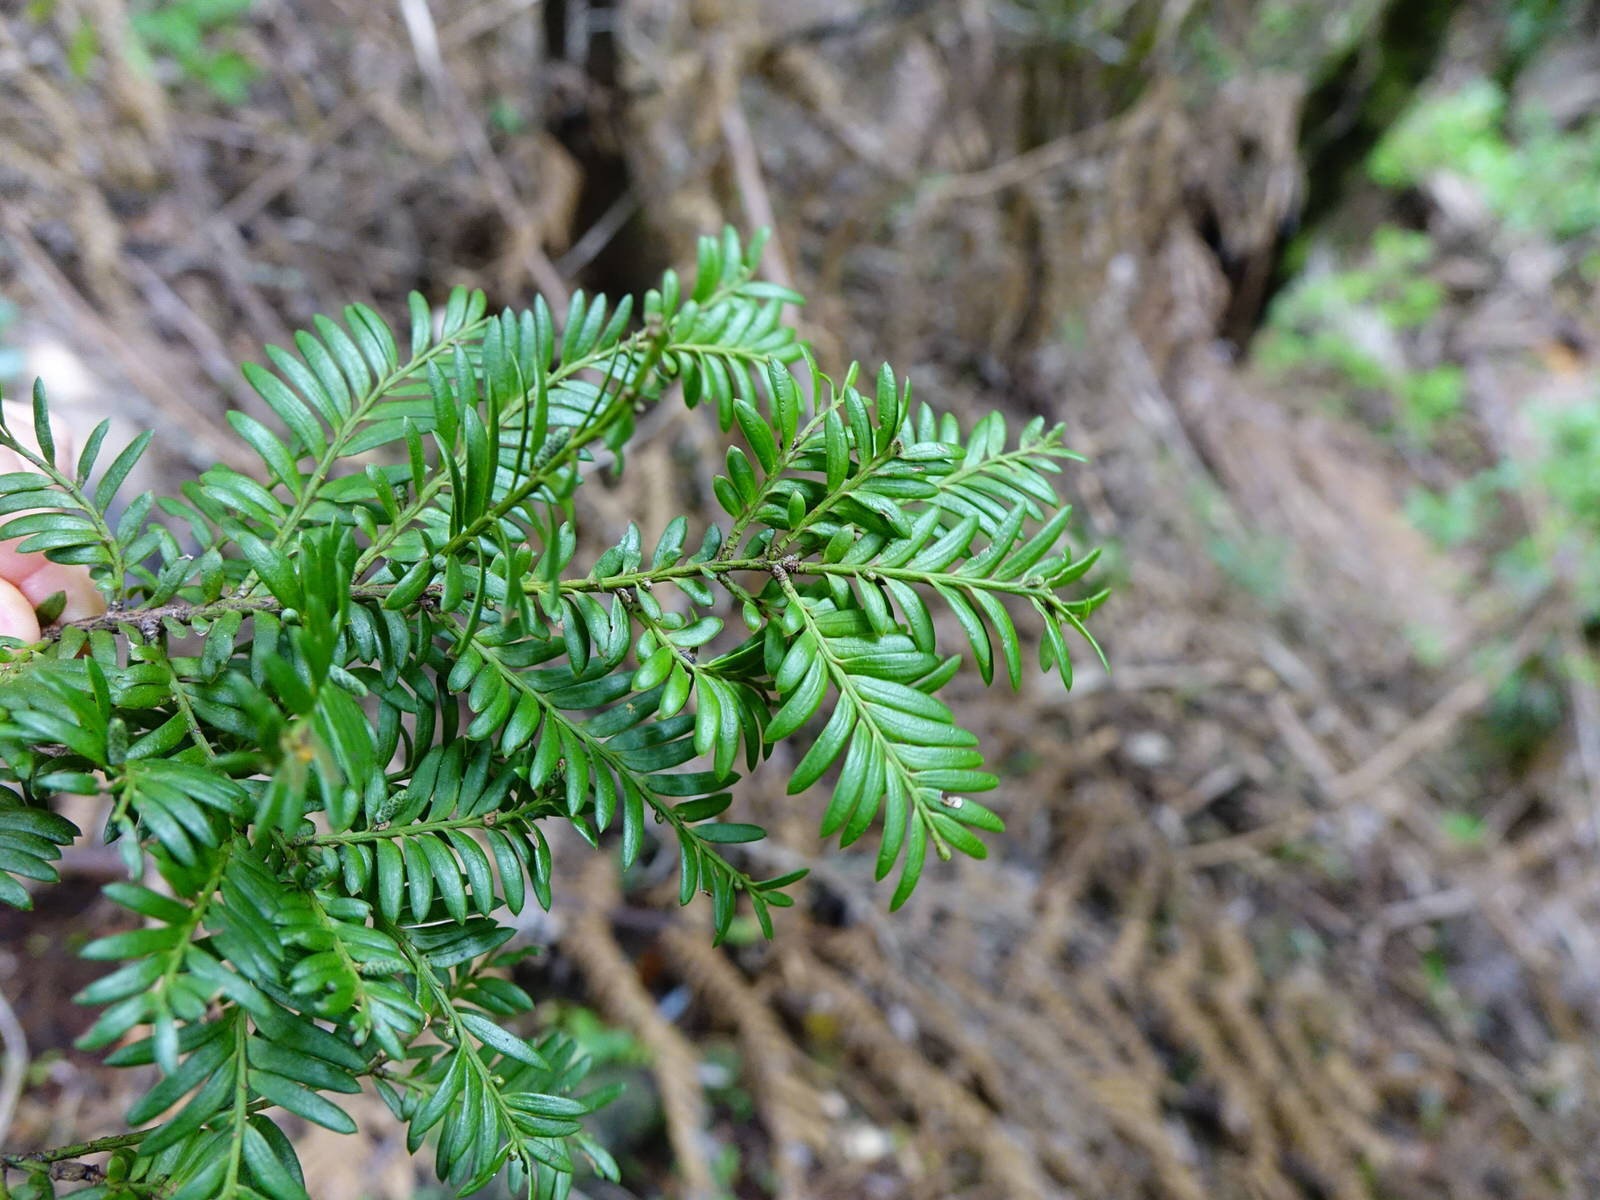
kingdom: Plantae
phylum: Tracheophyta
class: Pinopsida
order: Pinales
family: Podocarpaceae
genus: Prumnopitys
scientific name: Prumnopitys ferruginea
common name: Brown pine
